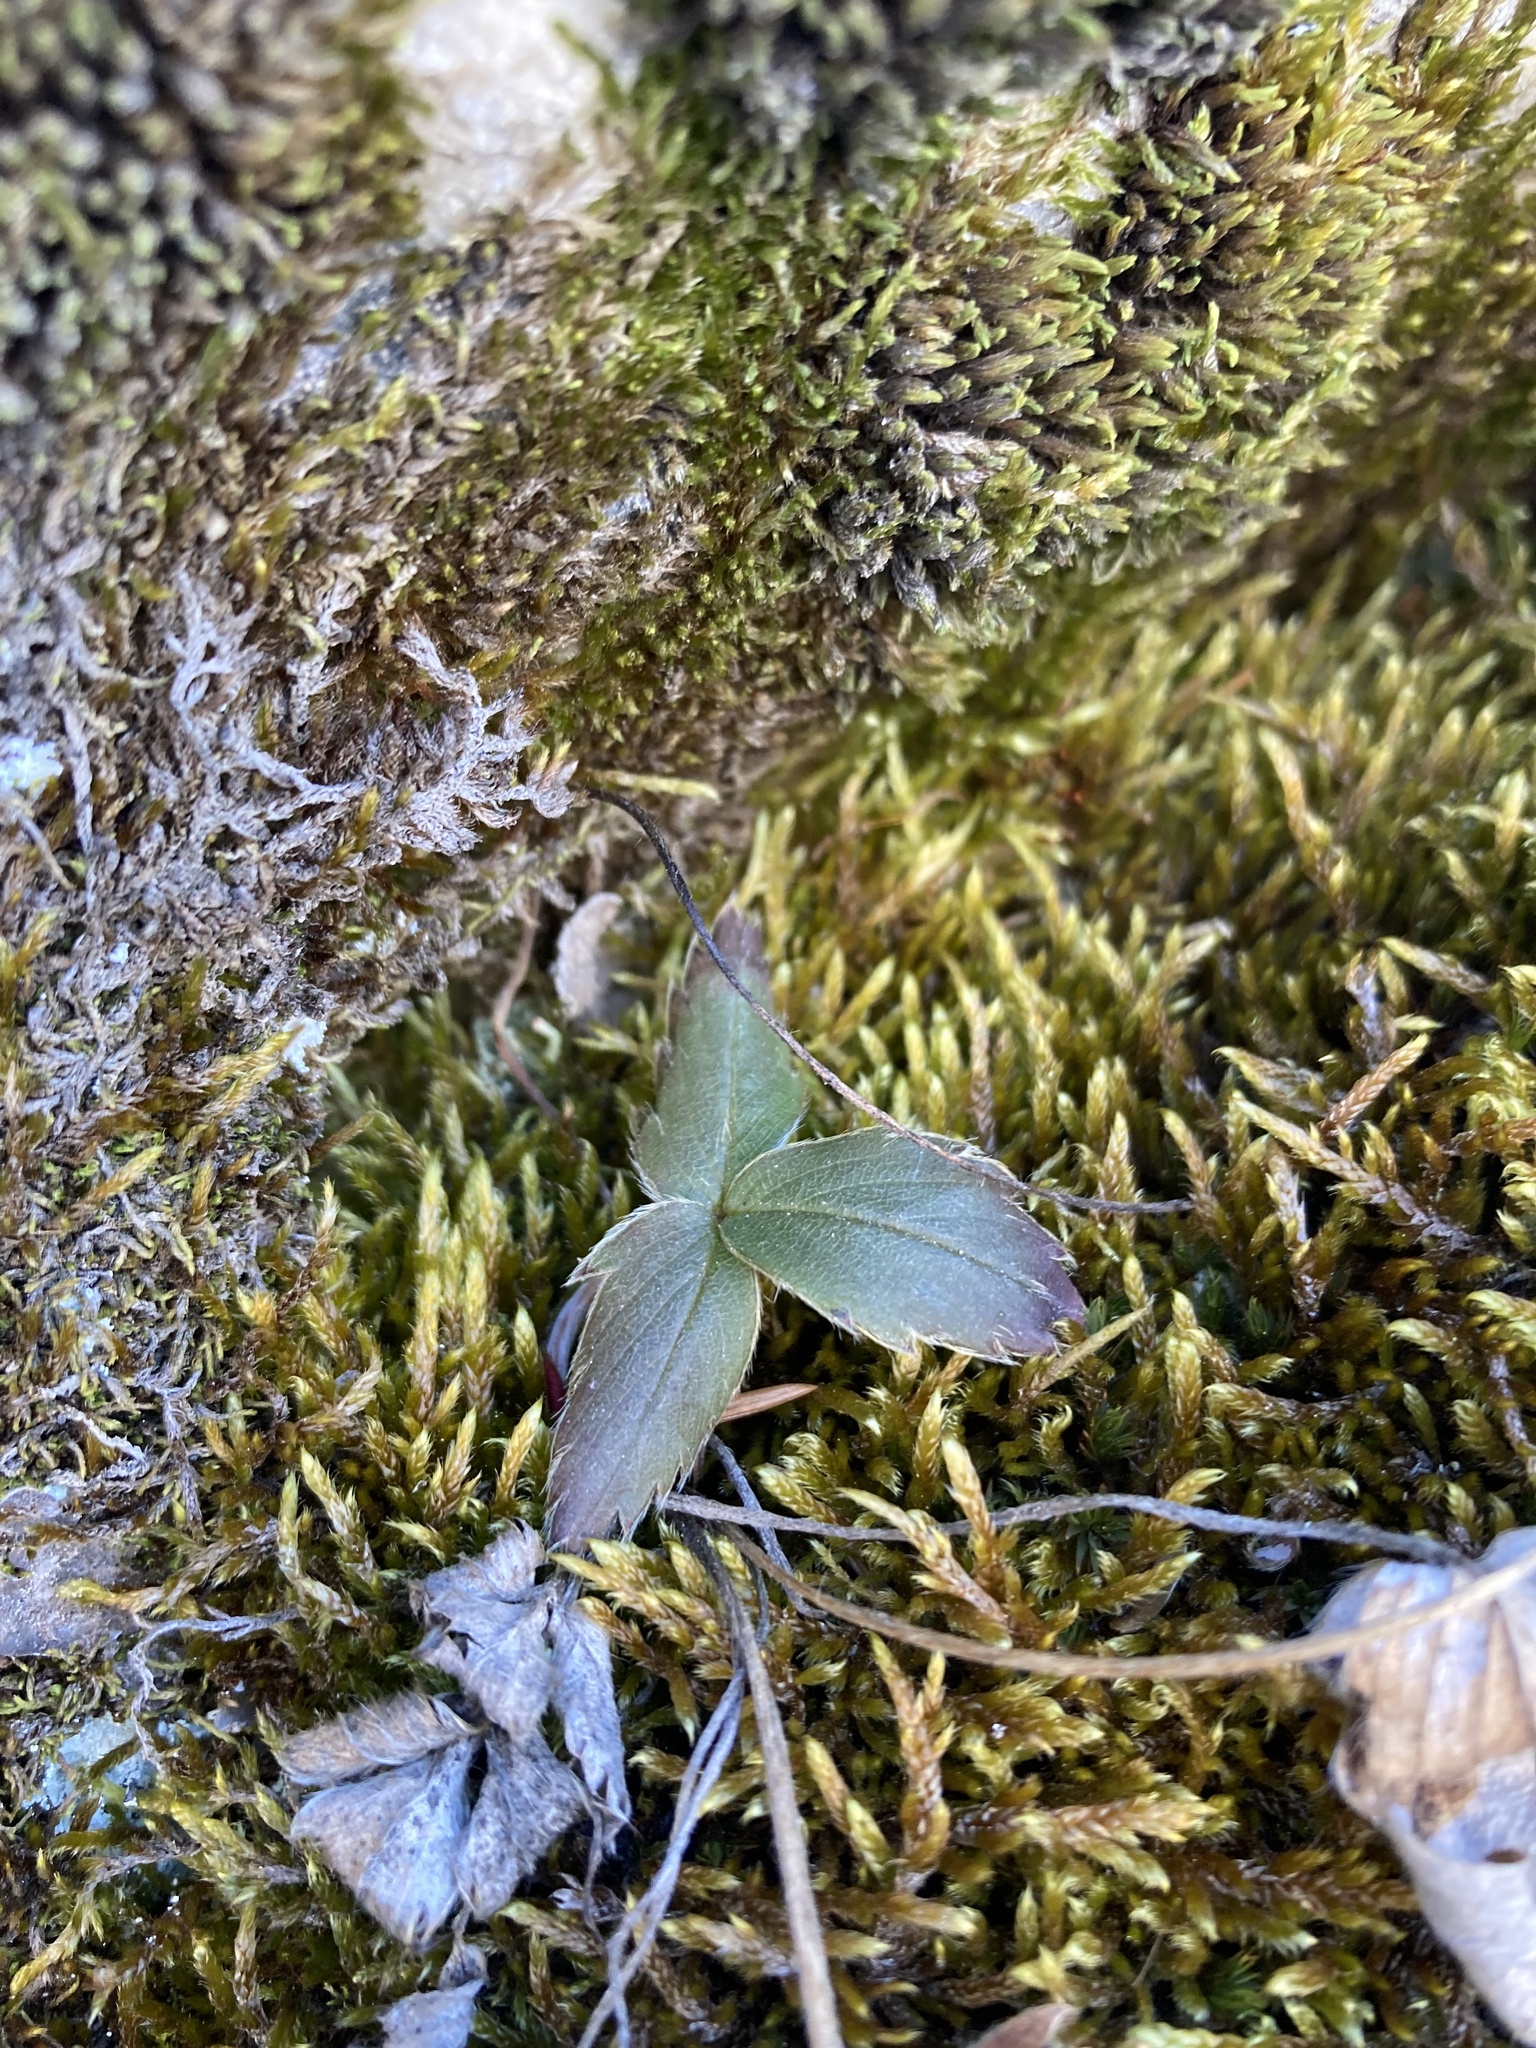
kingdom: Plantae
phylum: Tracheophyta
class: Magnoliopsida
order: Rosales
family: Rosaceae
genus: Fragaria
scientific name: Fragaria virginiana
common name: Thickleaved wild strawberry
